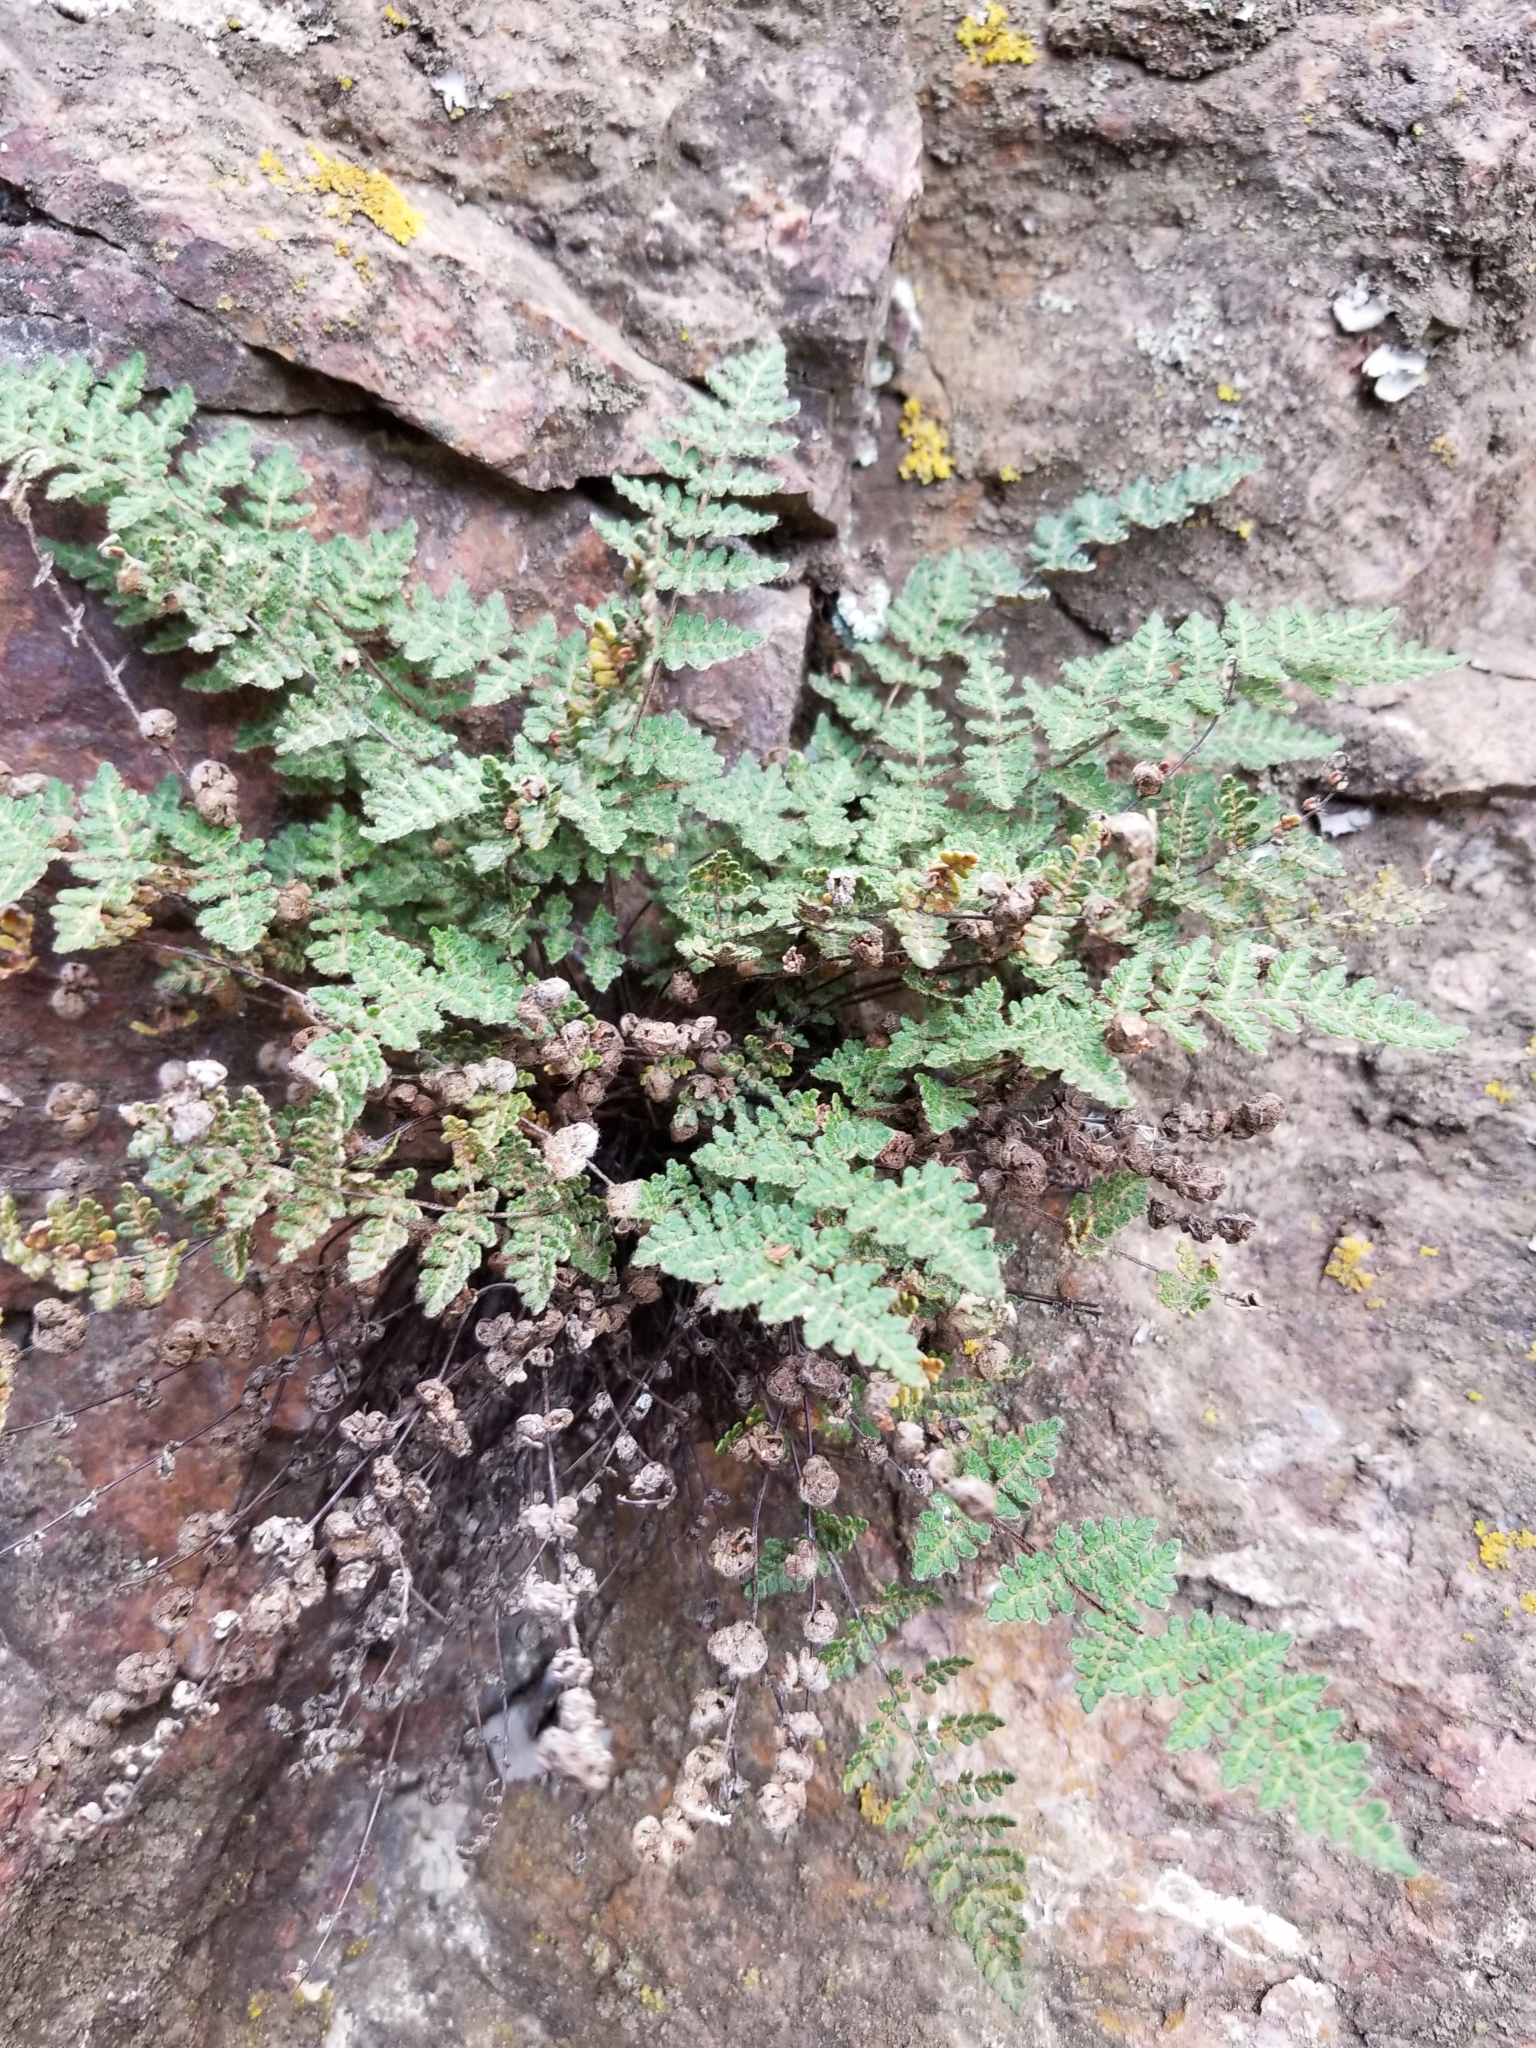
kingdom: Plantae
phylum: Tracheophyta
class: Polypodiopsida
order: Polypodiales
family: Pteridaceae
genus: Myriopteris
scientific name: Myriopteris gracilis
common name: Fee's lip fern
